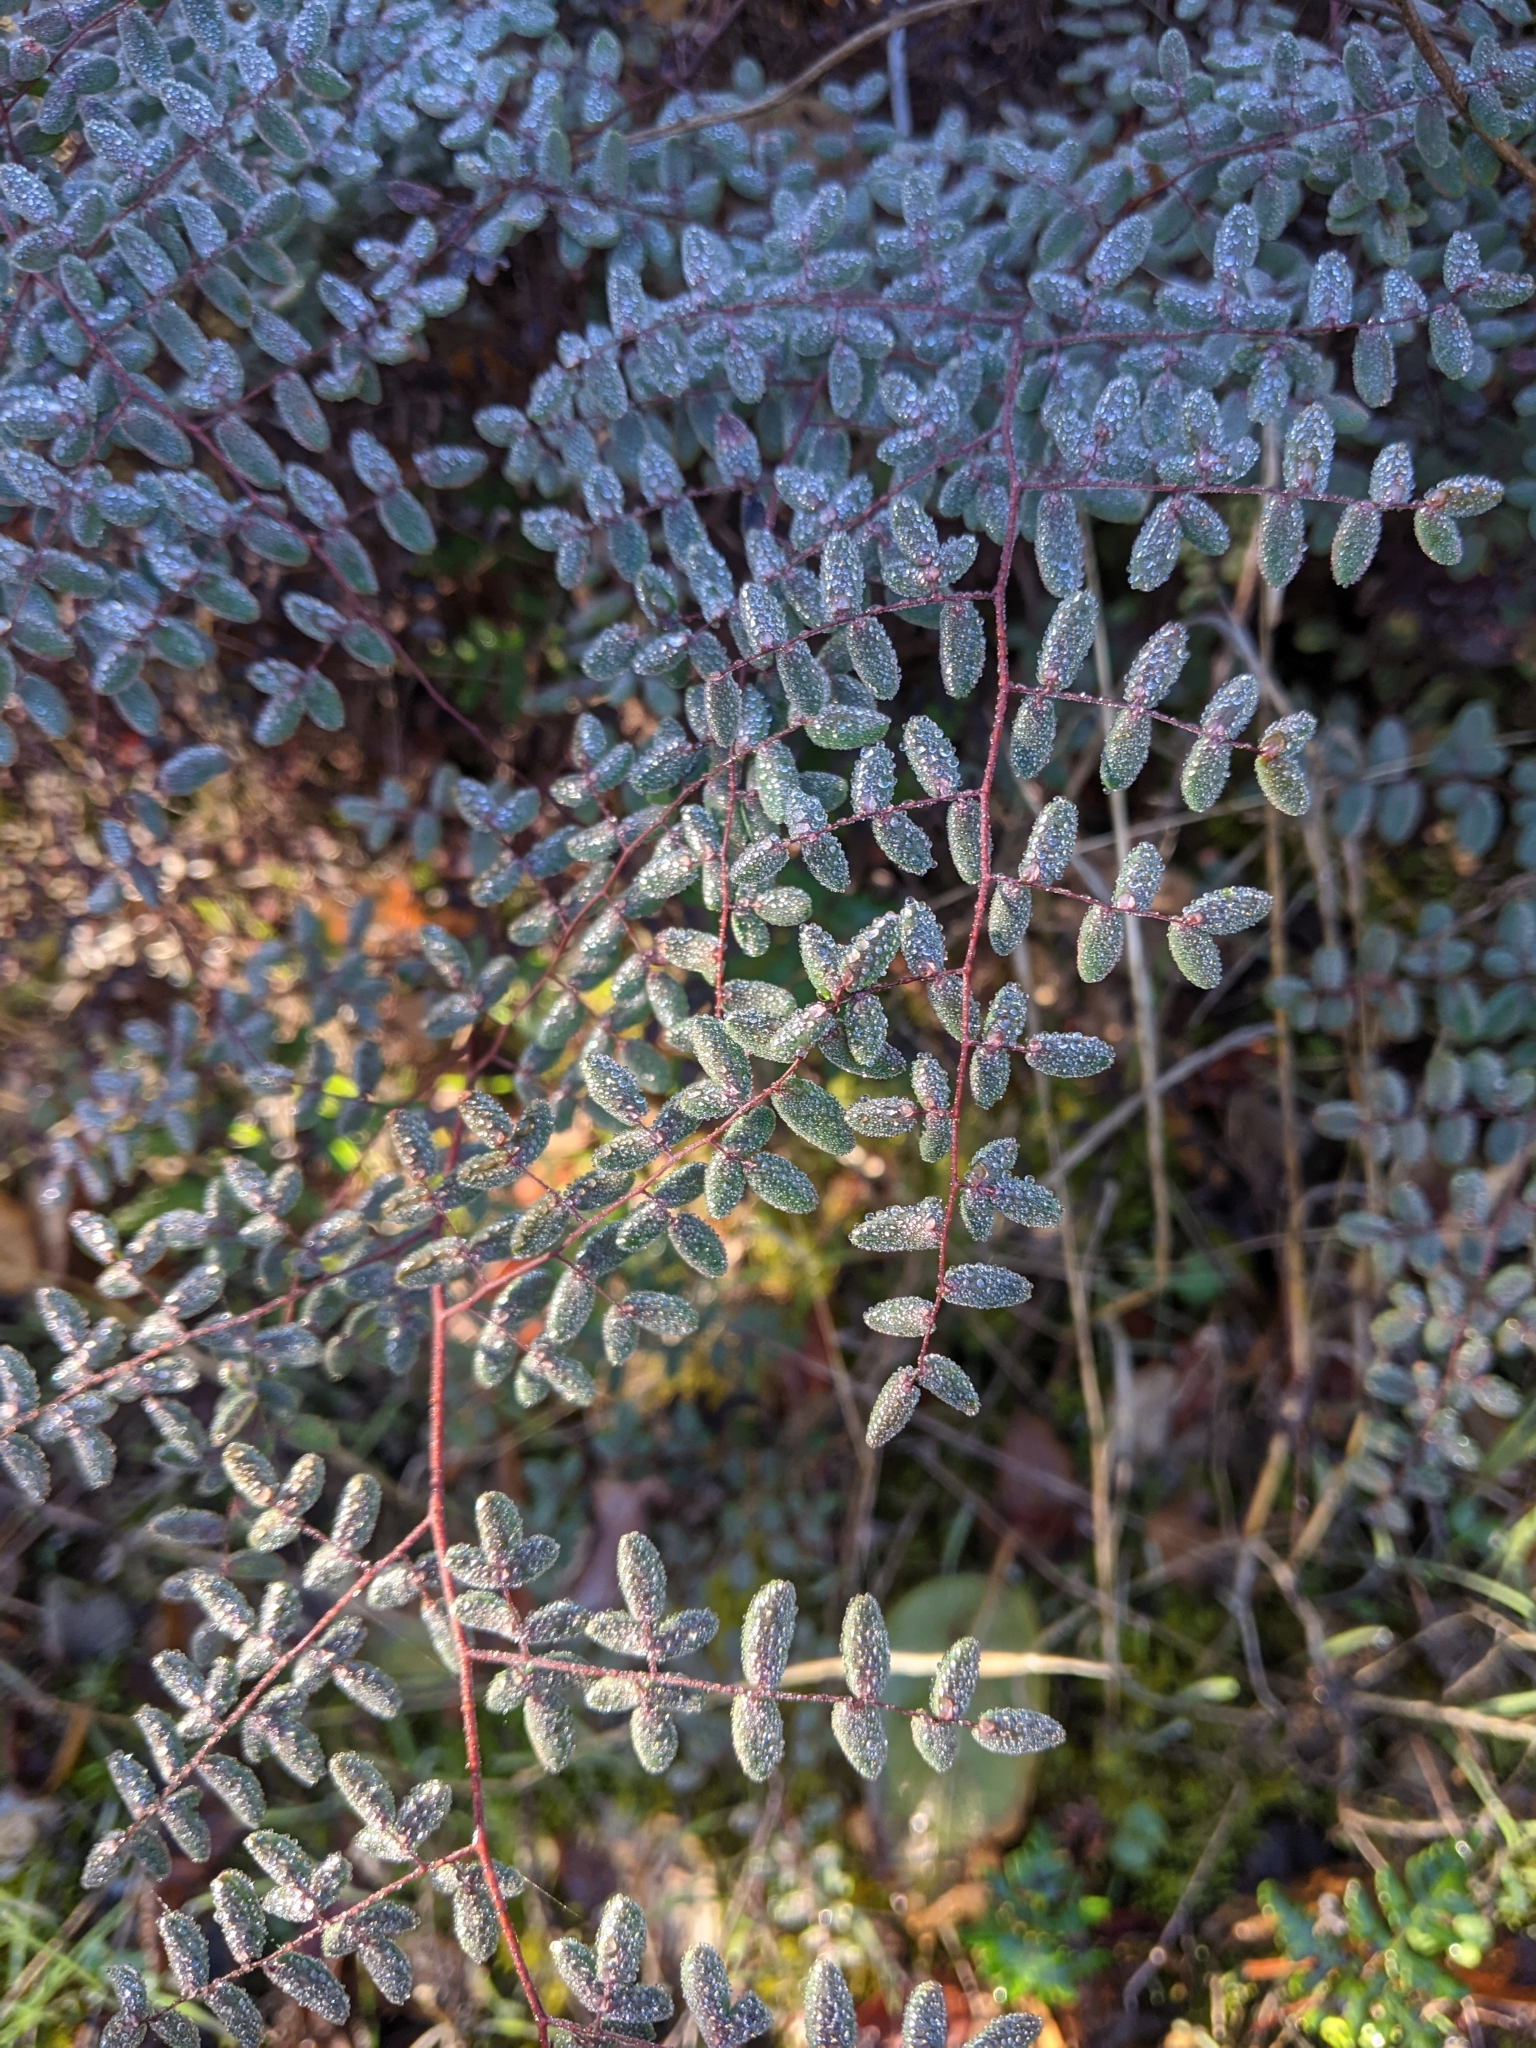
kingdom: Plantae
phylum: Tracheophyta
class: Polypodiopsida
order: Polypodiales
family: Pteridaceae
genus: Pellaea
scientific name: Pellaea andromedifolia
